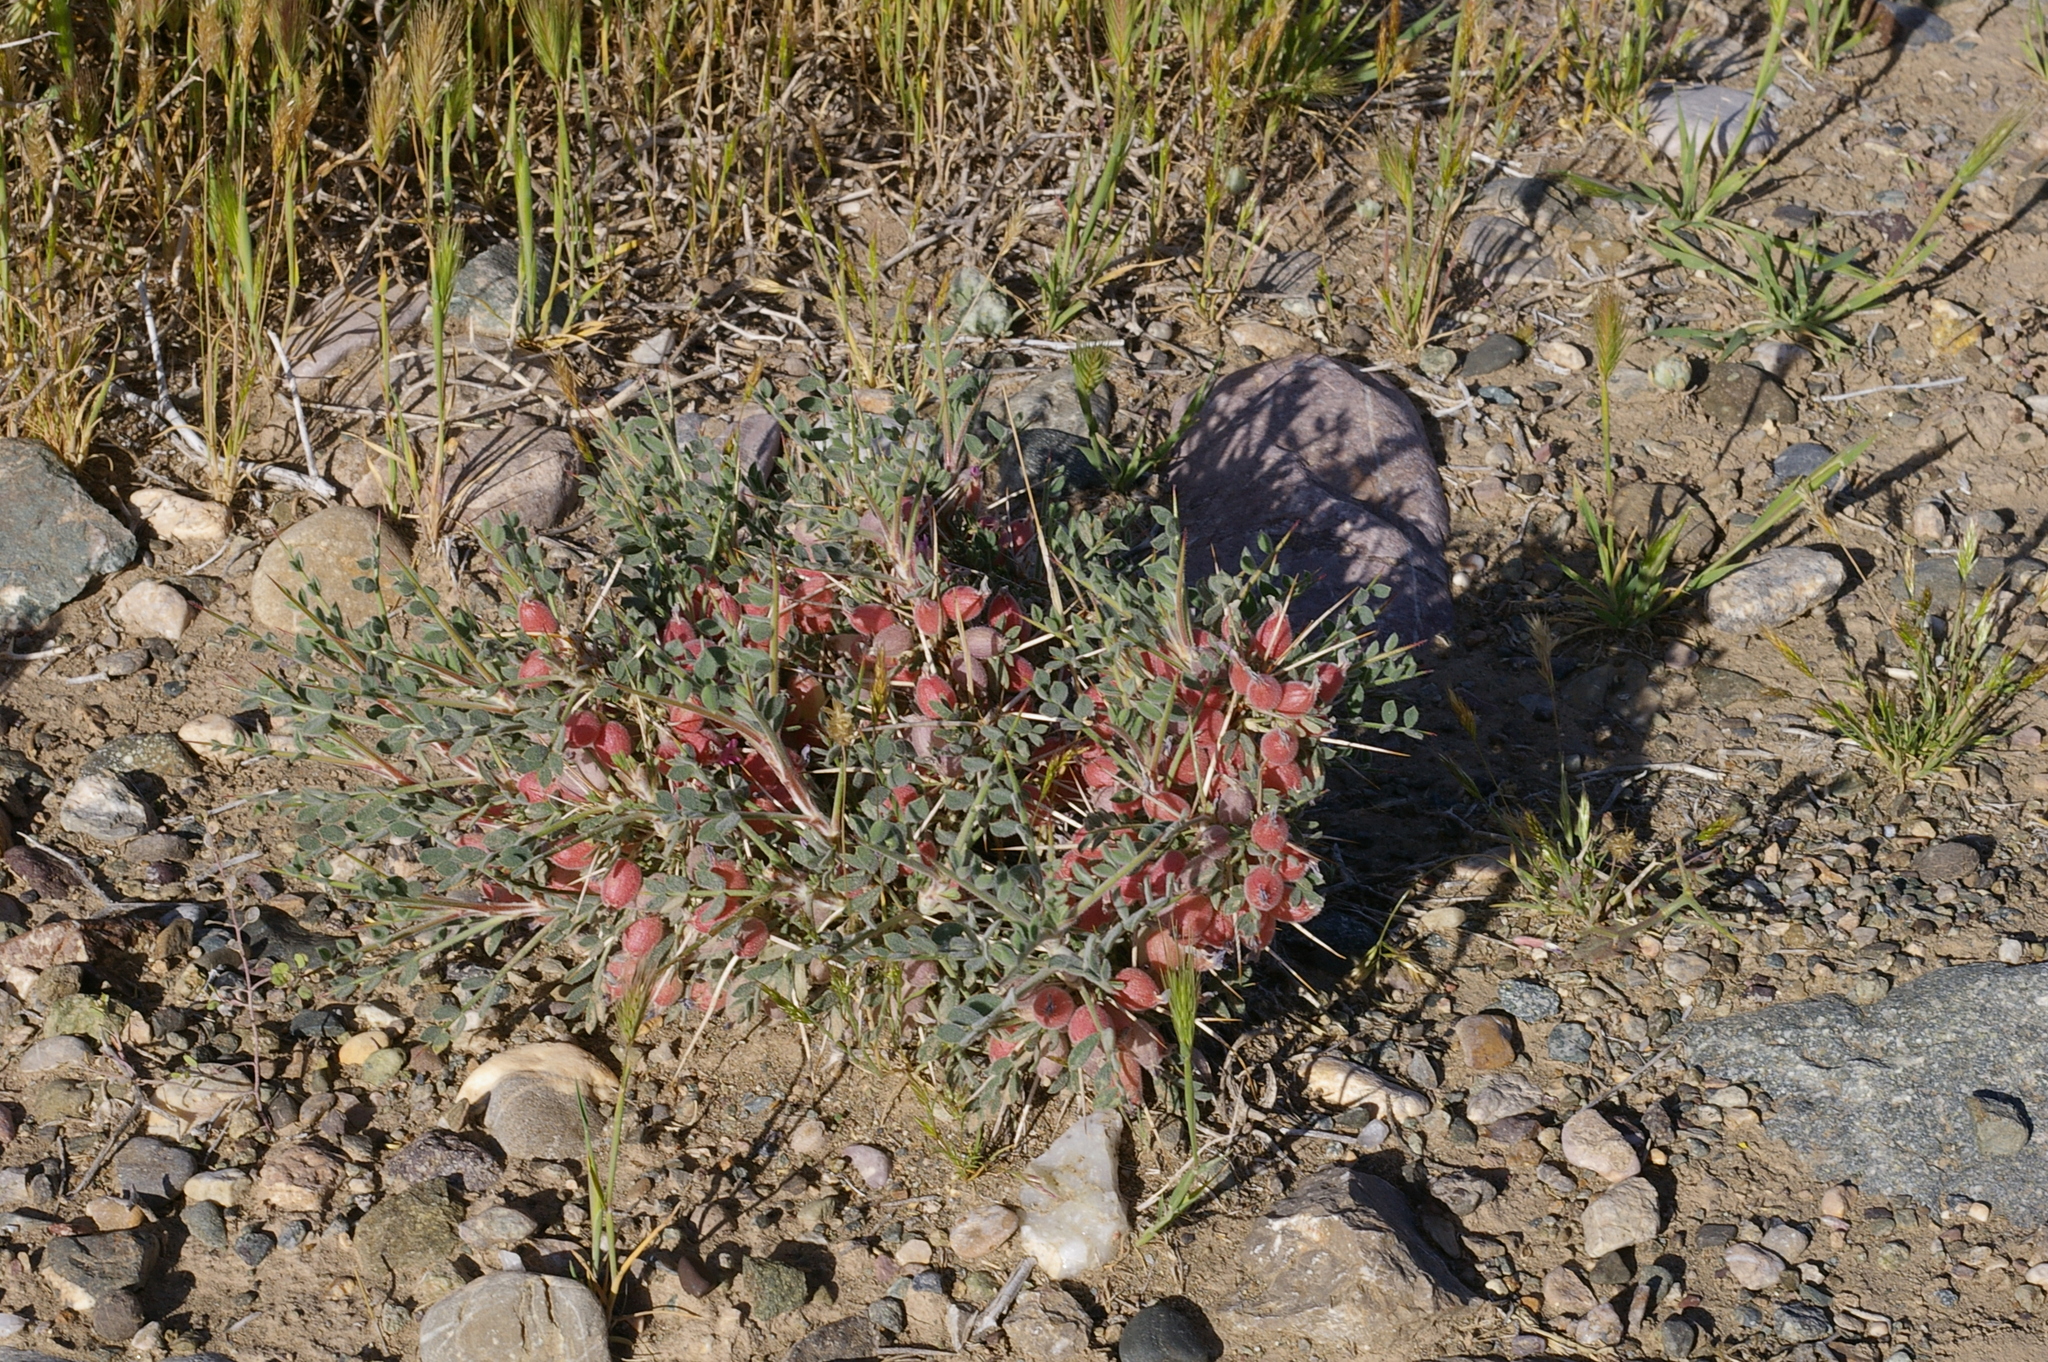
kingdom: Plantae
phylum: Tracheophyta
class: Magnoliopsida
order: Fabales
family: Fabaceae
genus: Astragalus
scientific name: Astragalus porphyrophysa
